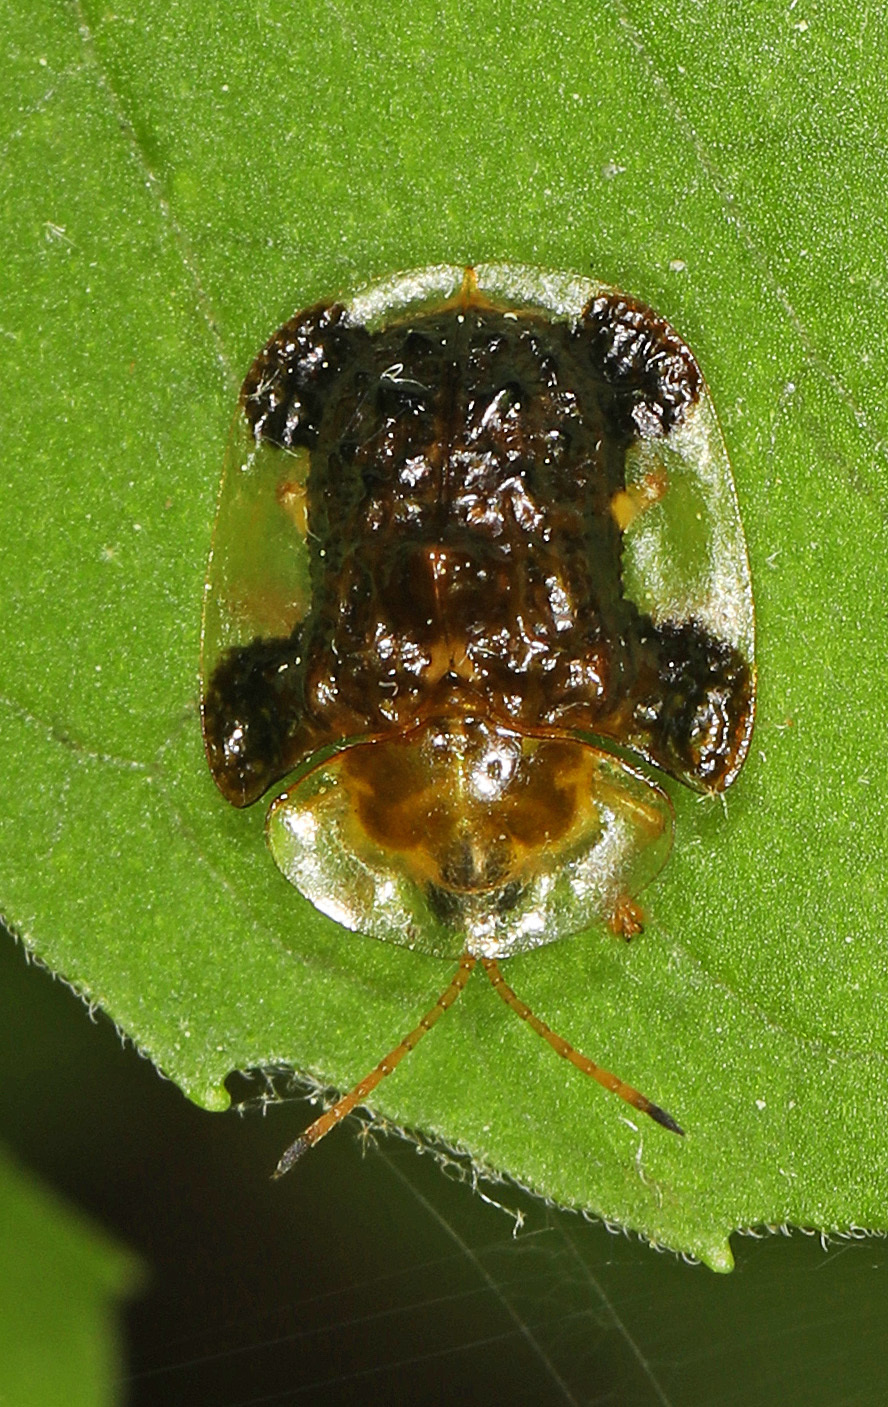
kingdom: Animalia
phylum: Arthropoda
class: Insecta
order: Coleoptera
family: Chrysomelidae
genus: Helocassis
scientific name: Helocassis clavata
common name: Clavate tortoise beetle
